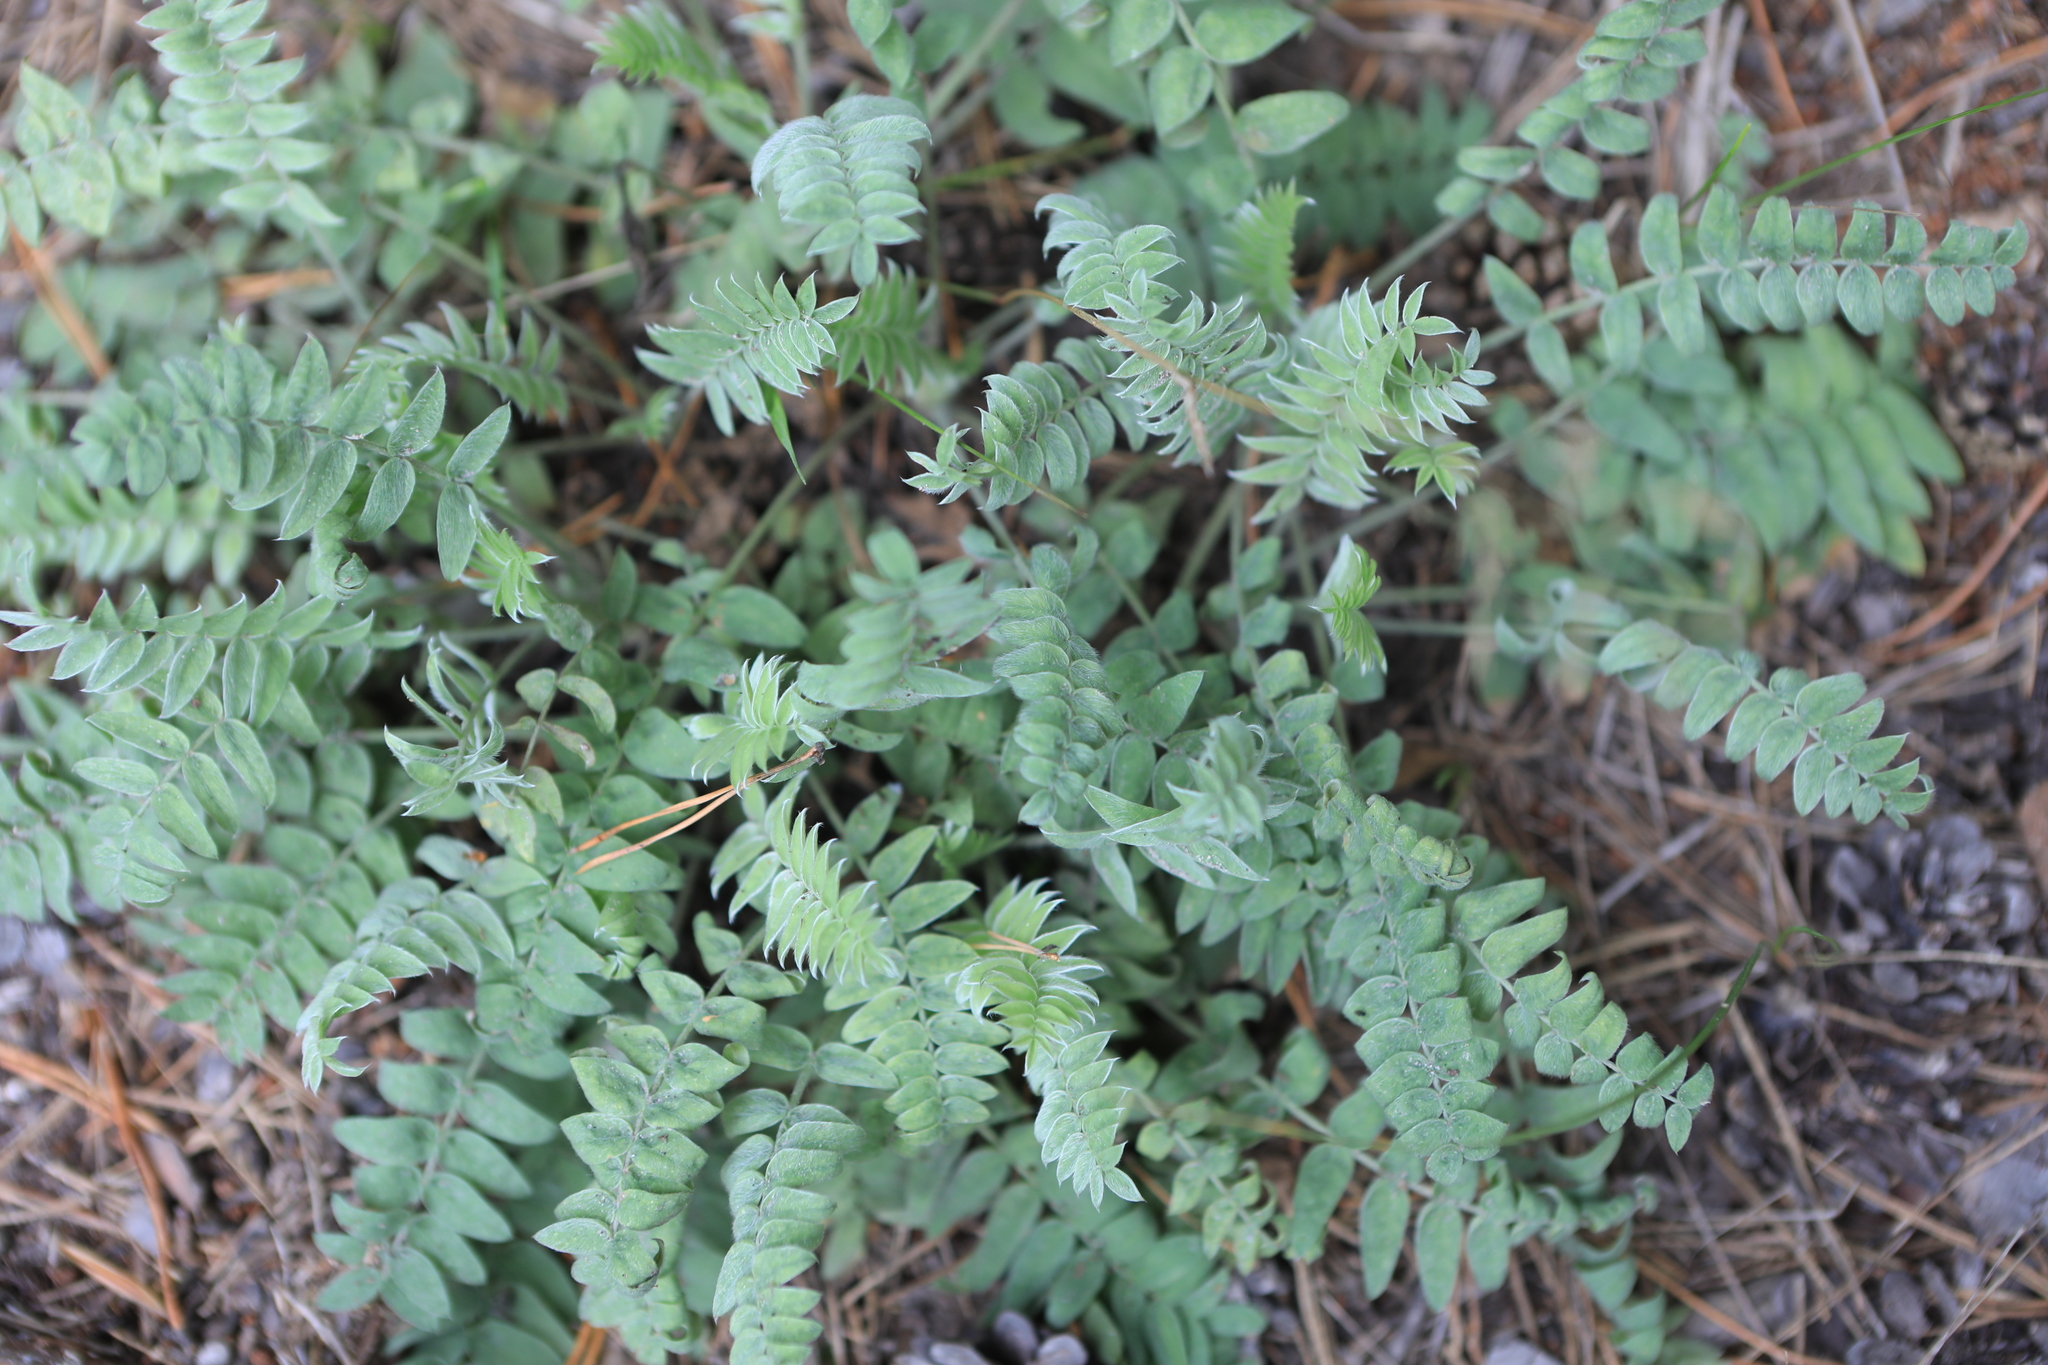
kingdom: Plantae
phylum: Tracheophyta
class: Magnoliopsida
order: Fabales
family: Fabaceae
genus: Oxytropis
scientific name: Oxytropis campanulata
